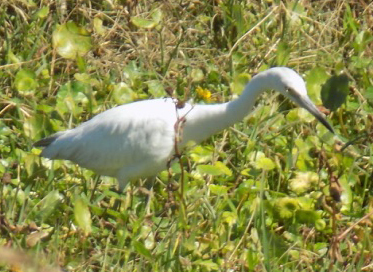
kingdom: Animalia
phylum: Chordata
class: Aves
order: Pelecaniformes
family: Ardeidae
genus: Egretta
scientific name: Egretta caerulea
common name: Little blue heron
